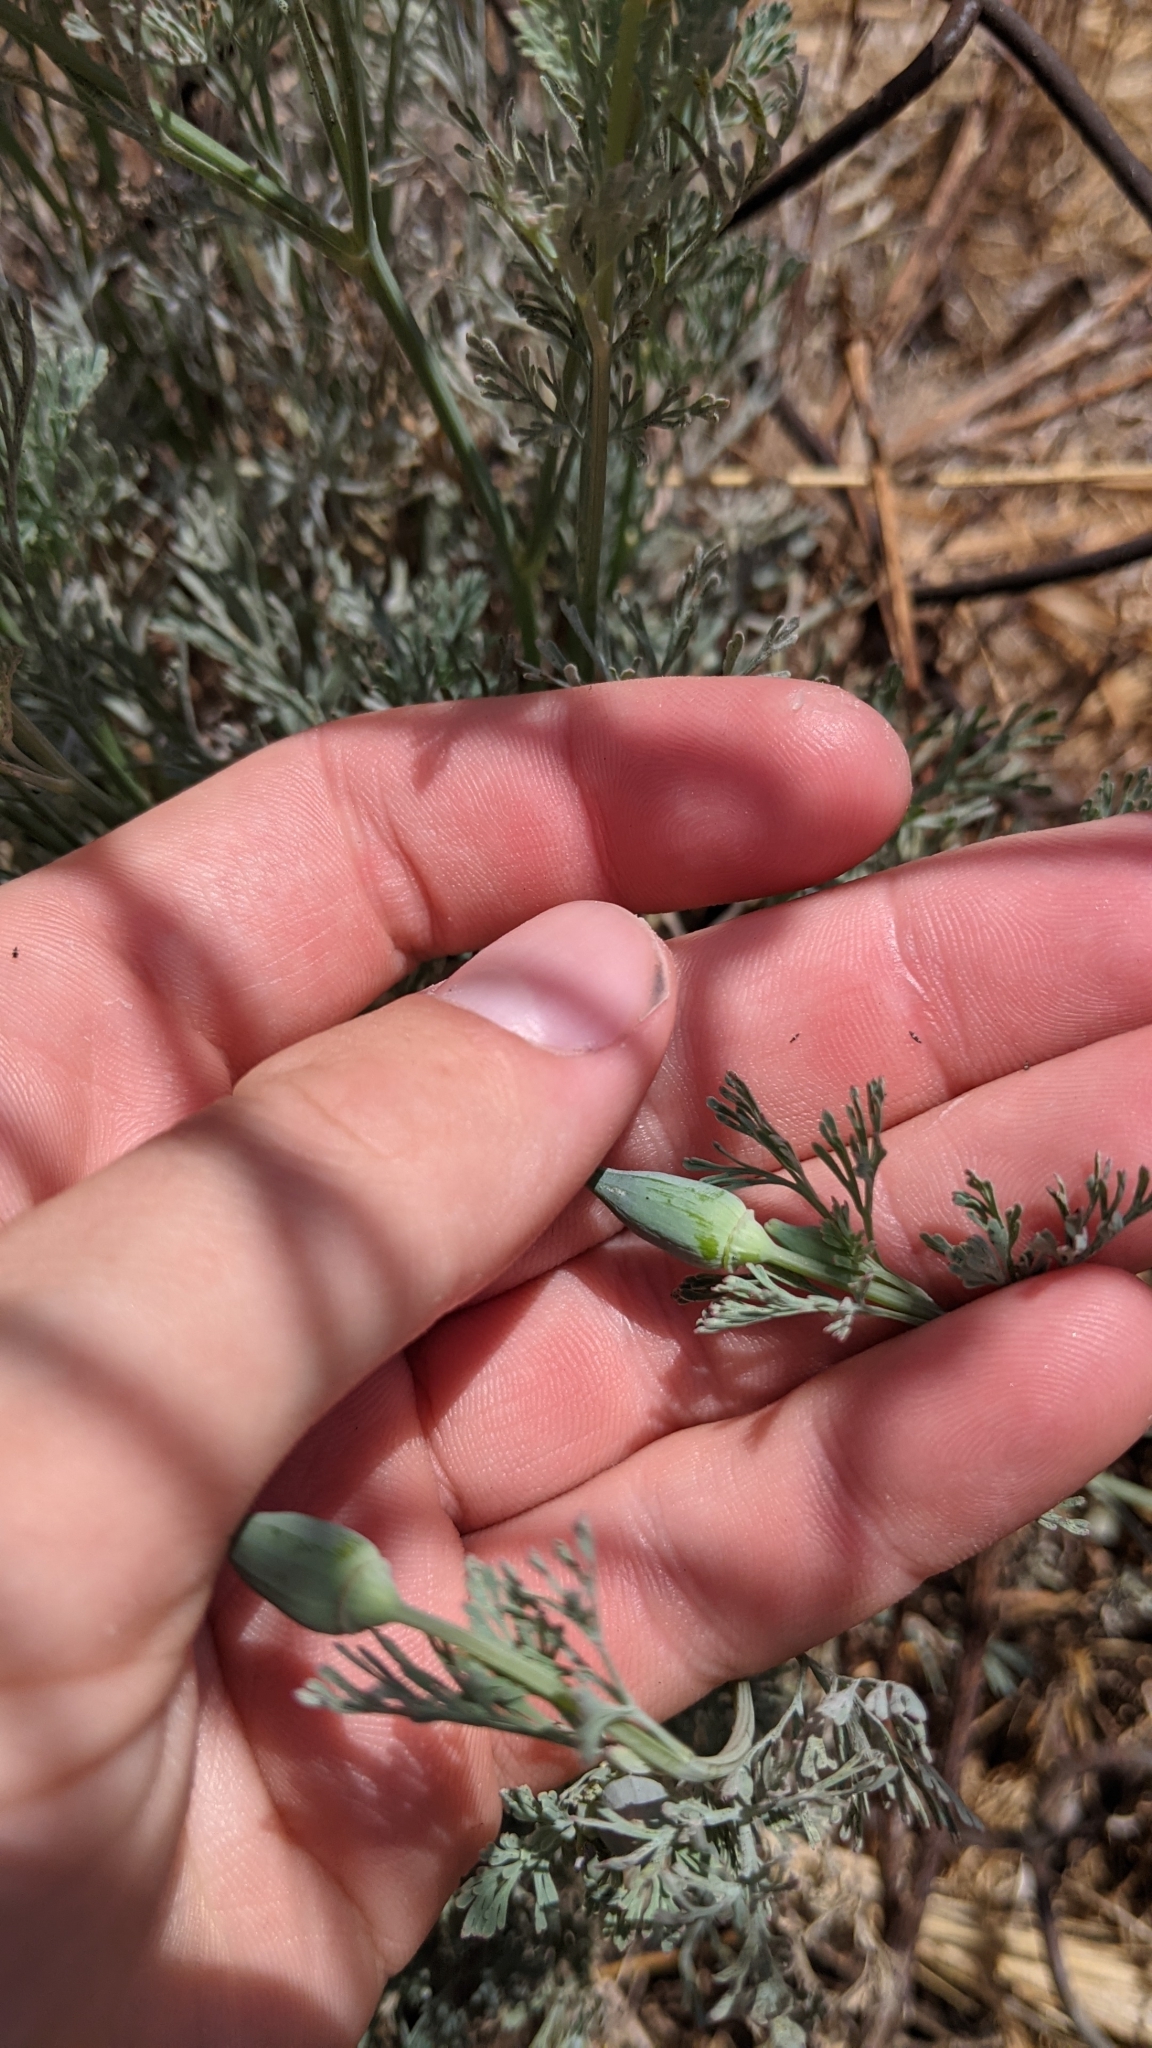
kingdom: Plantae
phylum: Tracheophyta
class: Magnoliopsida
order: Ranunculales
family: Papaveraceae
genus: Eschscholzia
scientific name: Eschscholzia californica
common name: California poppy
